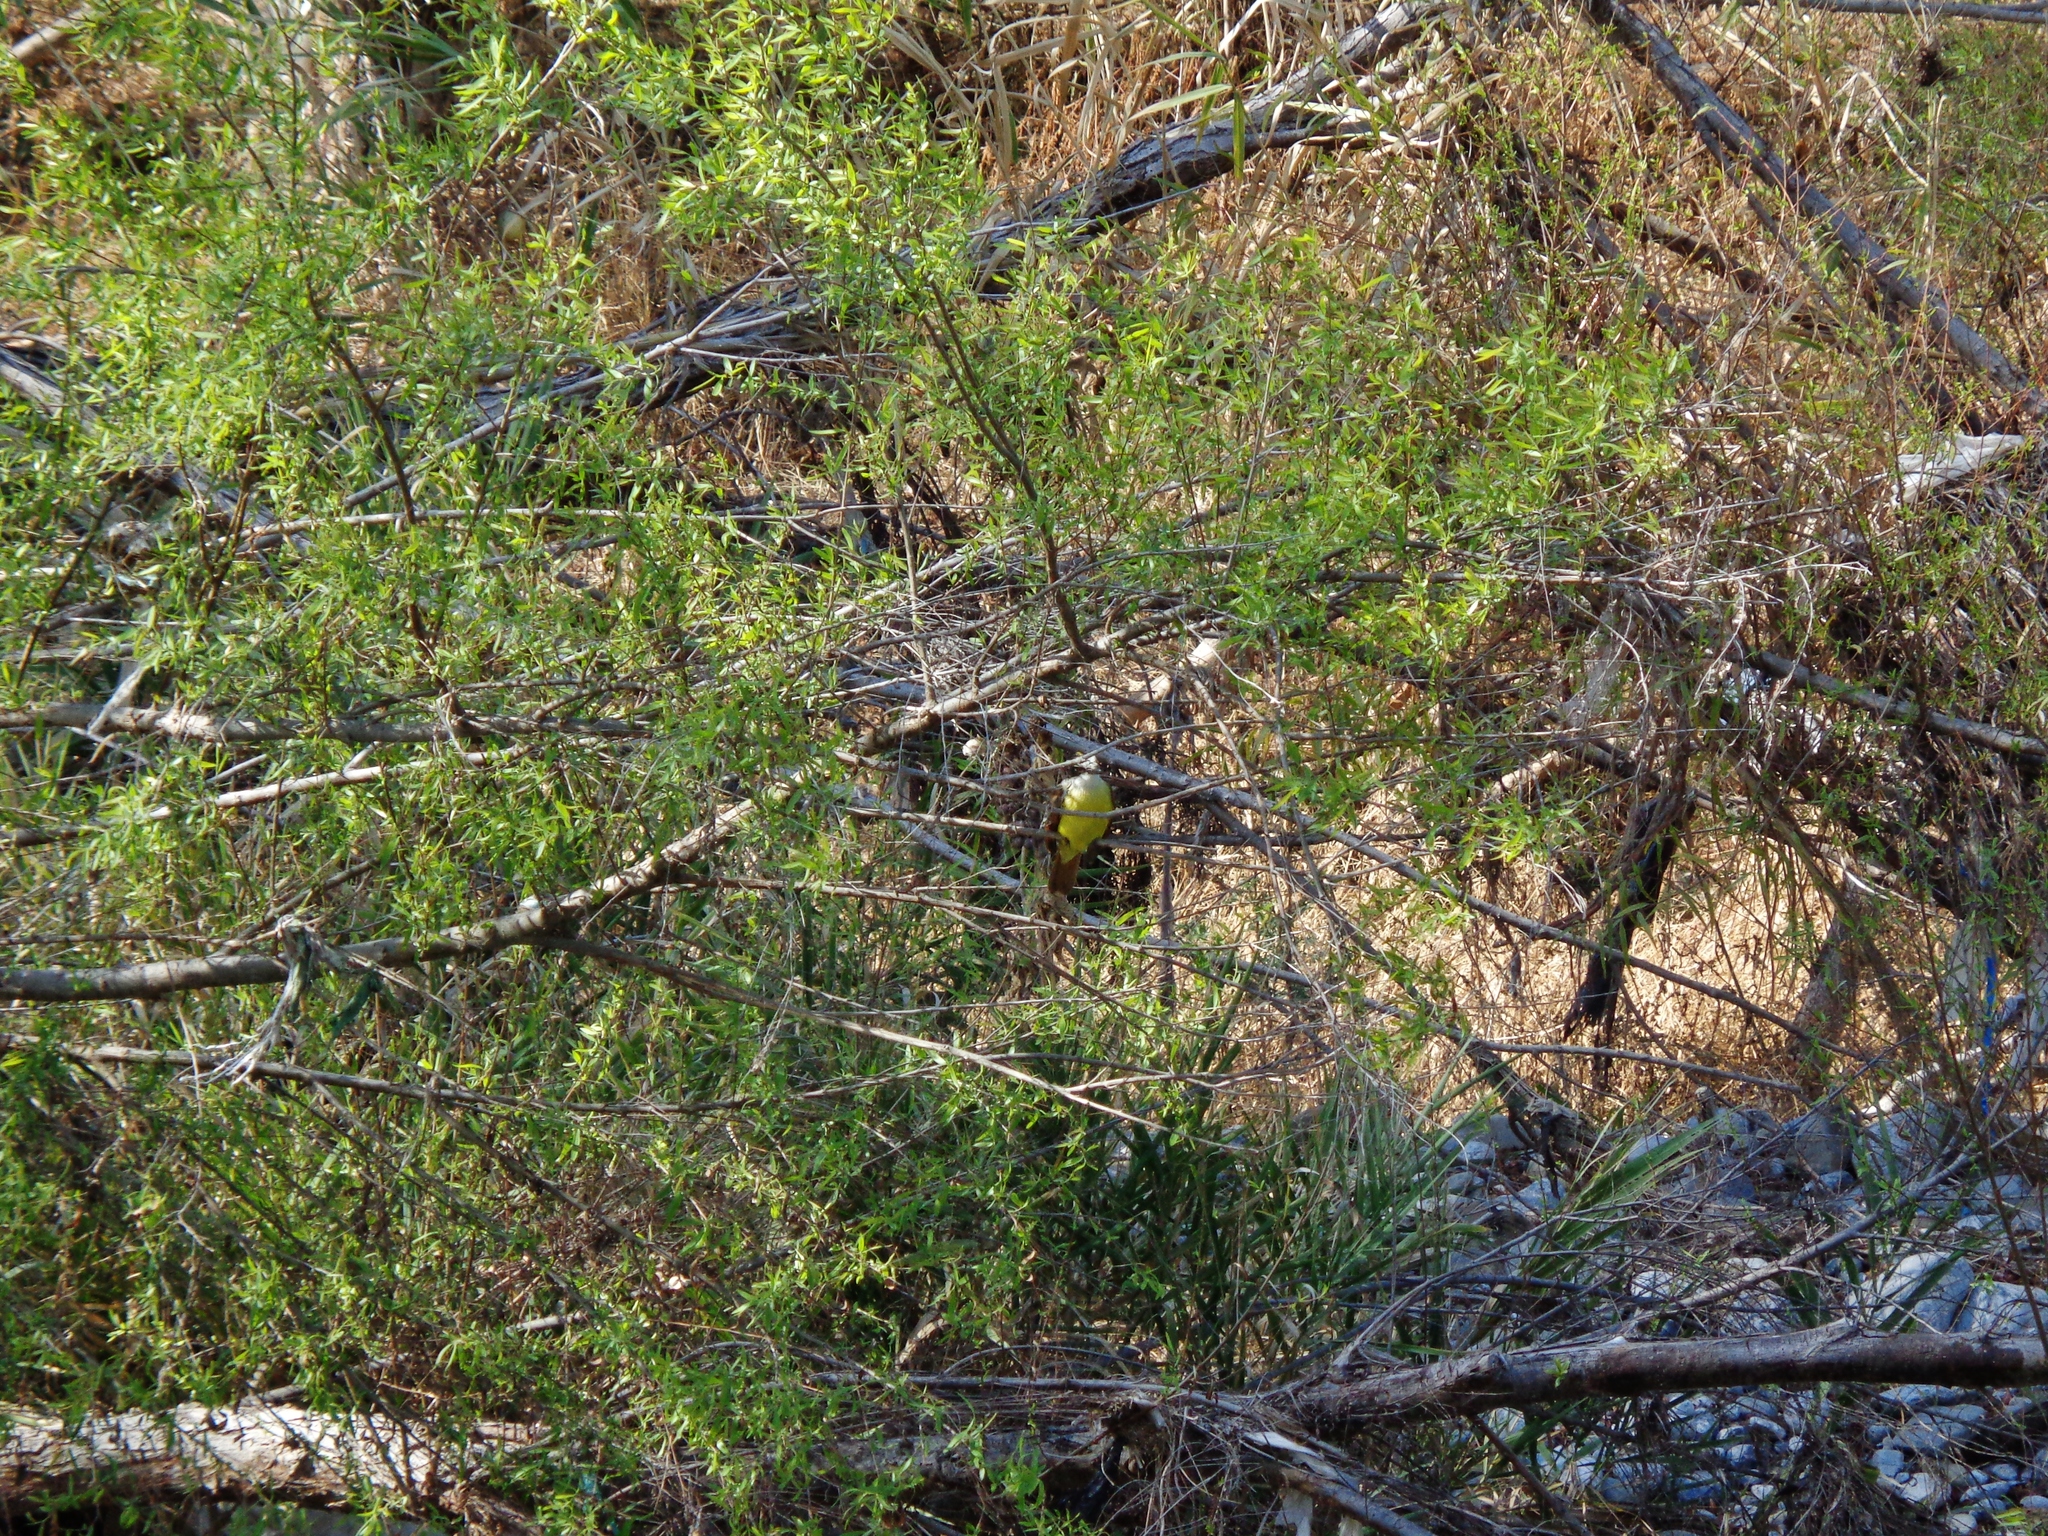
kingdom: Animalia
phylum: Chordata
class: Aves
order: Passeriformes
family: Tyrannidae
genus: Pitangus
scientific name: Pitangus sulphuratus
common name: Great kiskadee
